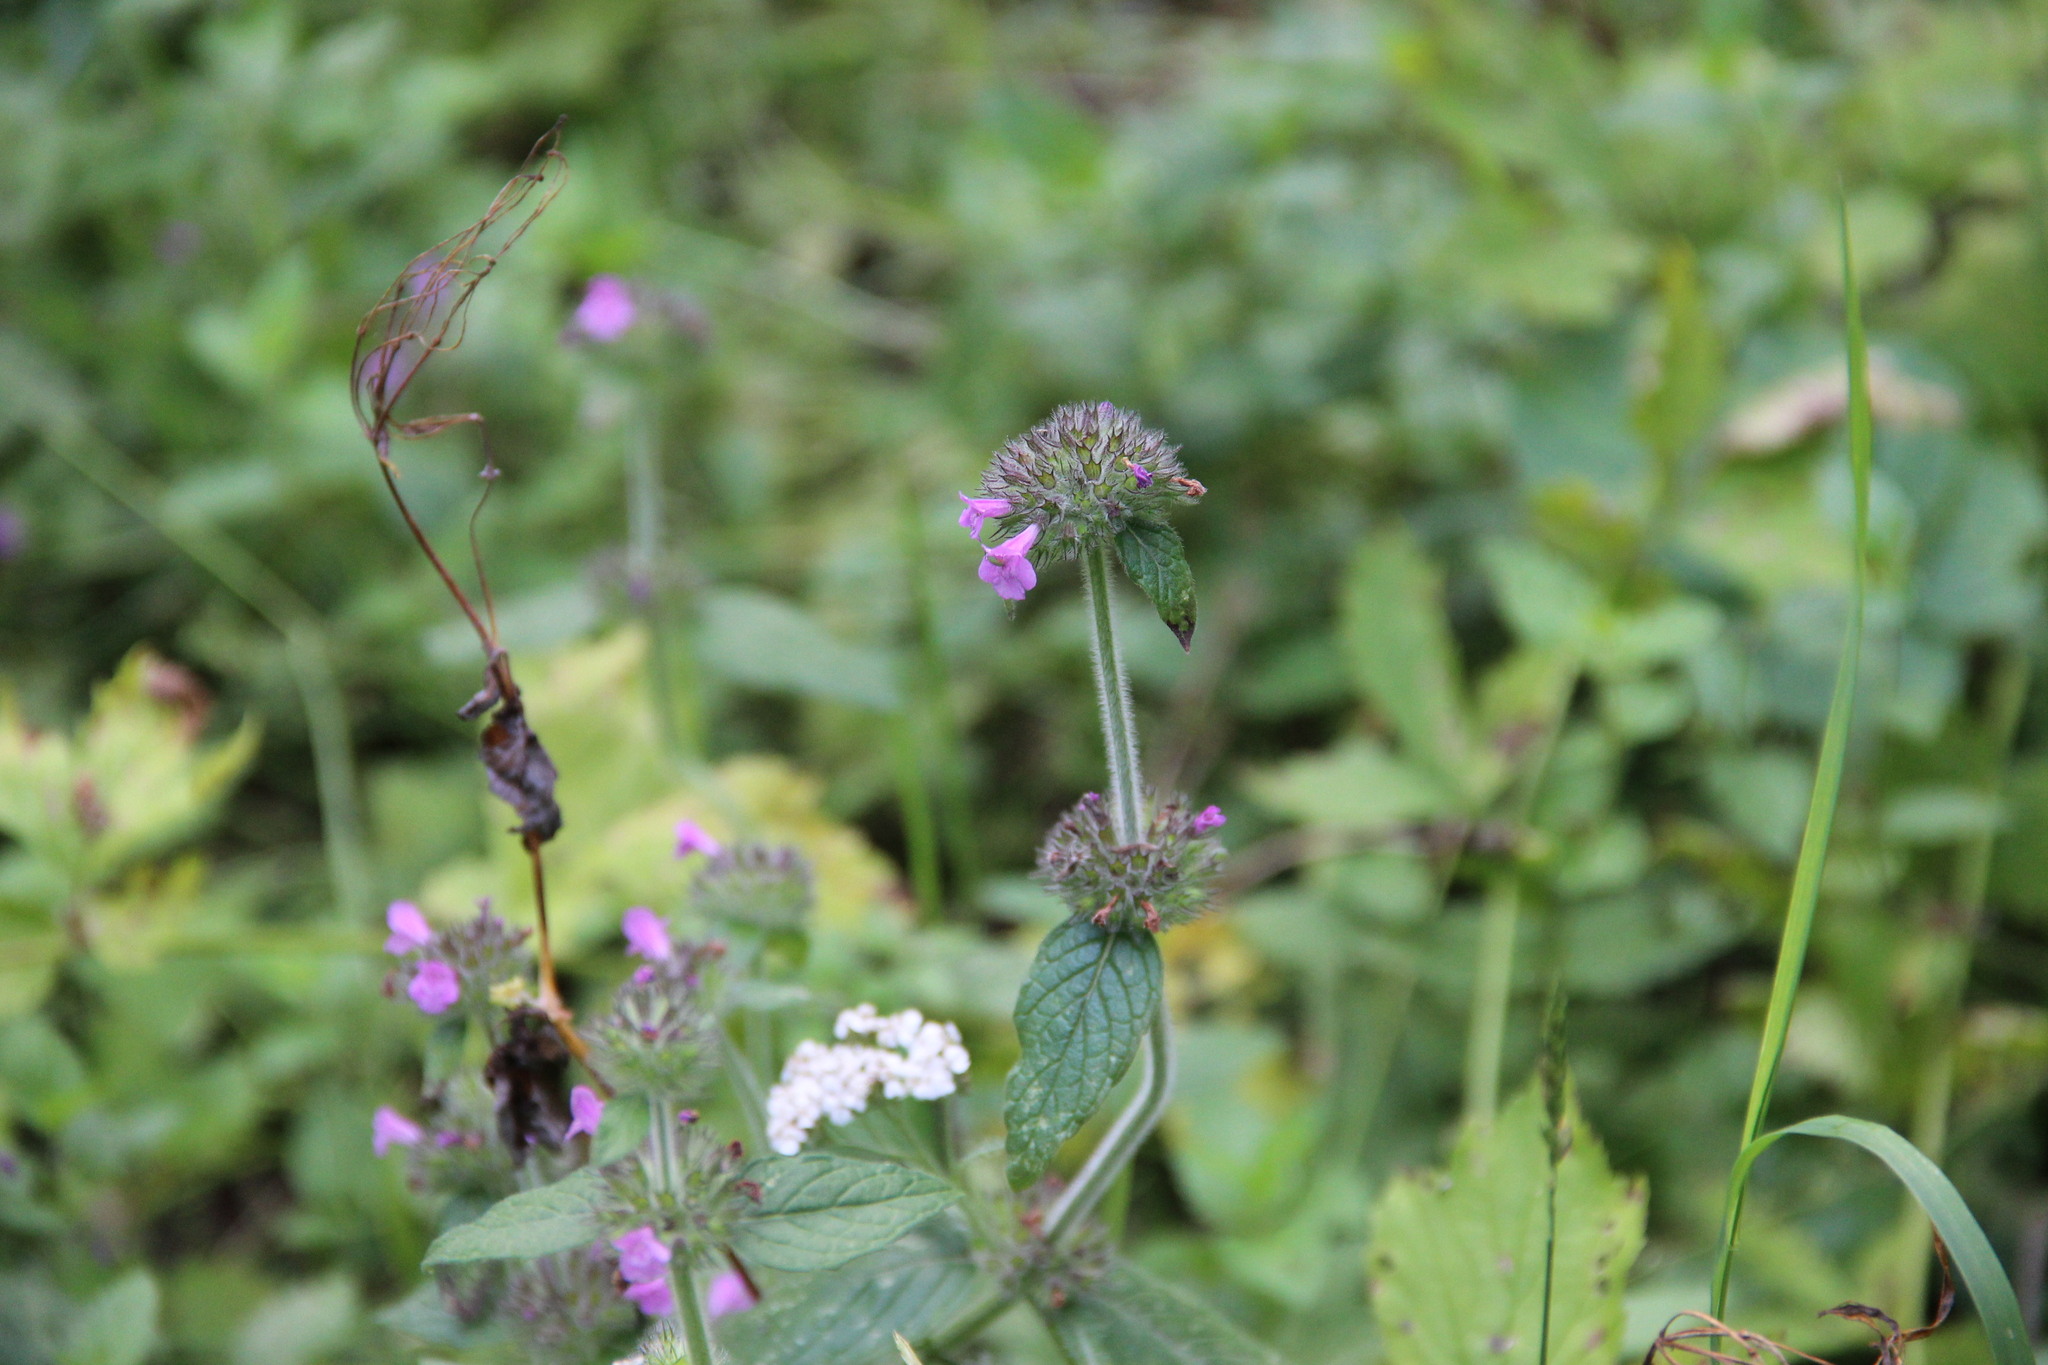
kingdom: Plantae
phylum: Tracheophyta
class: Magnoliopsida
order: Lamiales
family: Lamiaceae
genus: Clinopodium
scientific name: Clinopodium vulgare
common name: Wild basil
